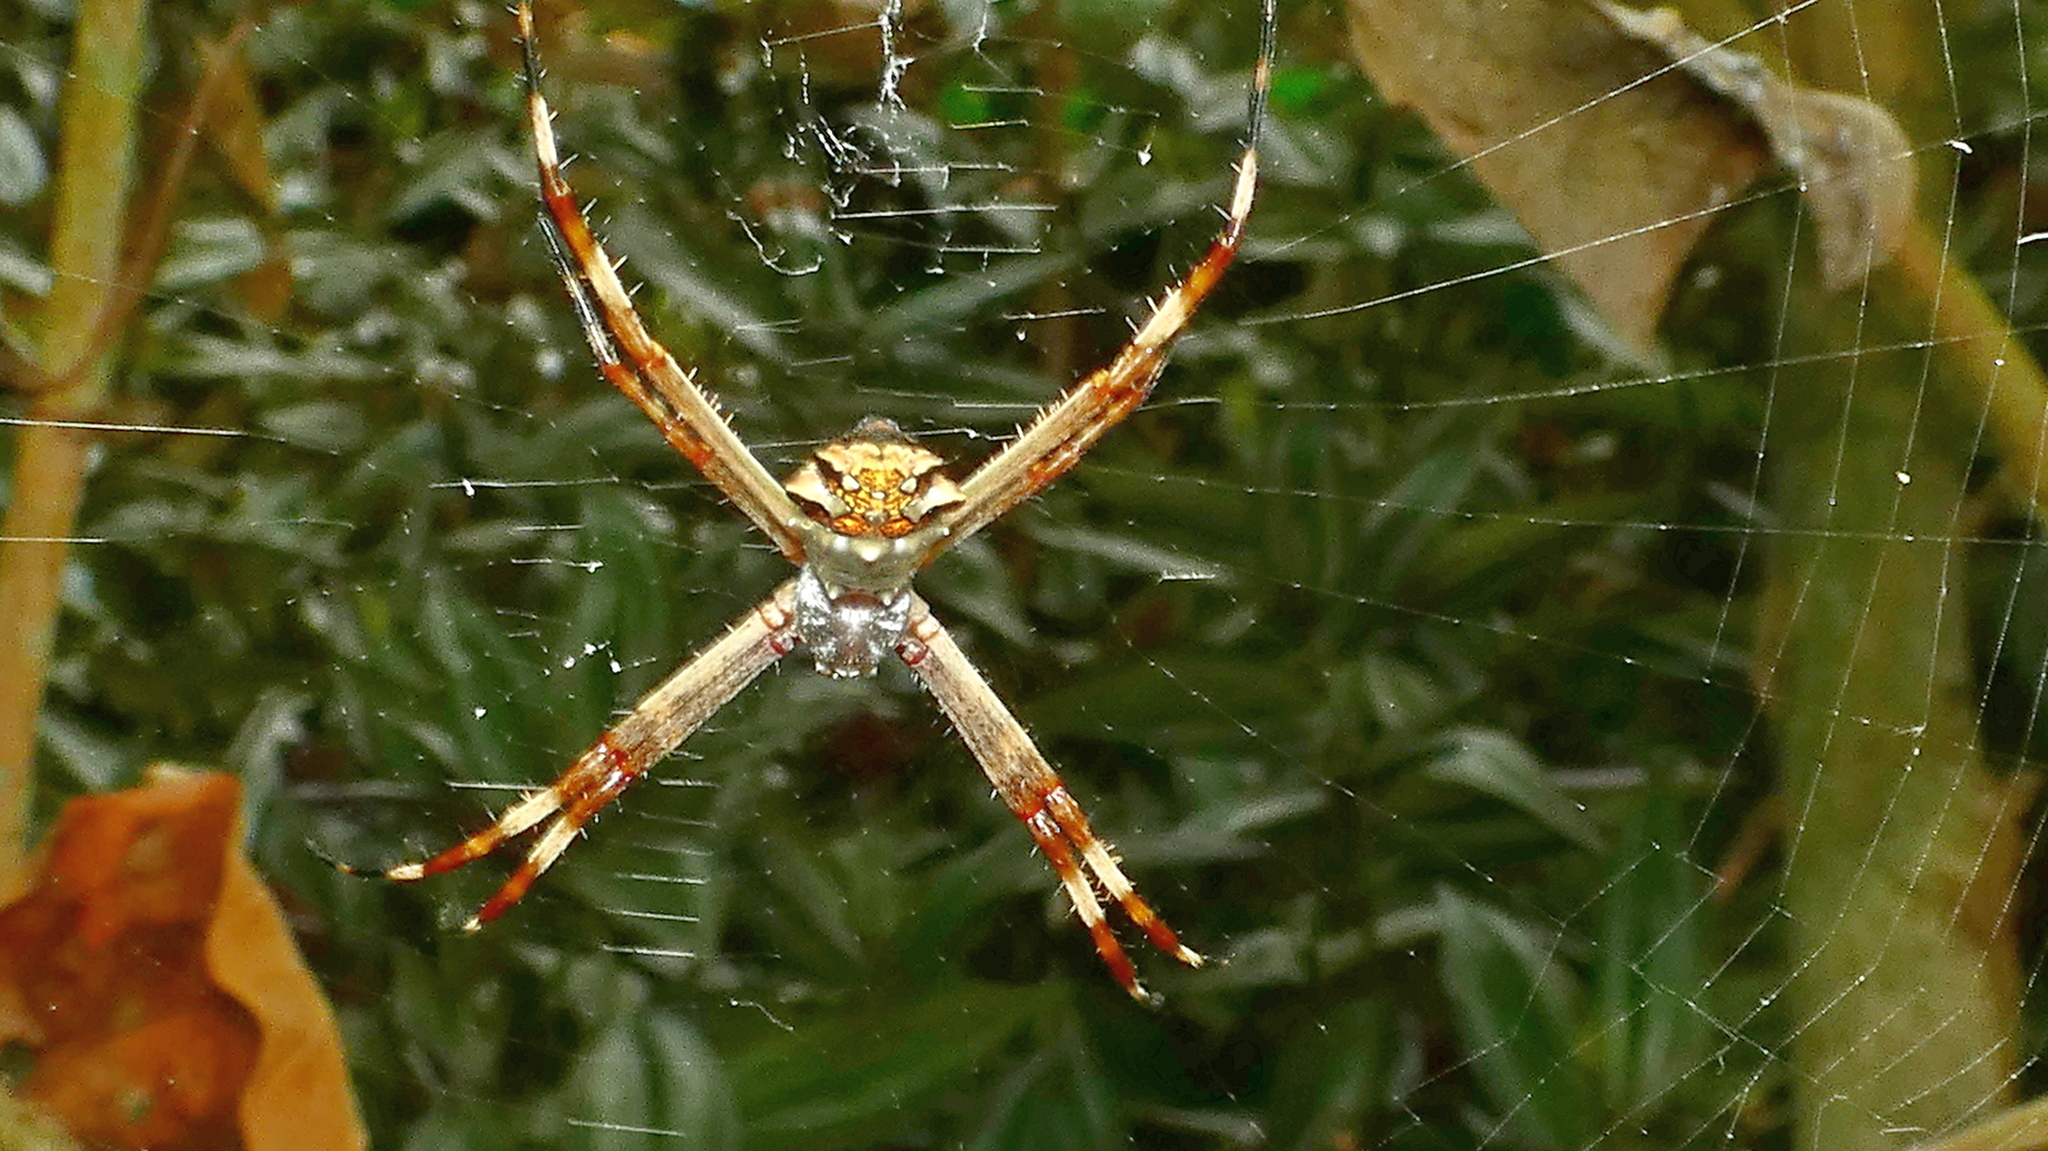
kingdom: Animalia
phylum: Arthropoda
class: Arachnida
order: Araneae
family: Araneidae
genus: Argiope
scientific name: Argiope argentata
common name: Orb weavers
